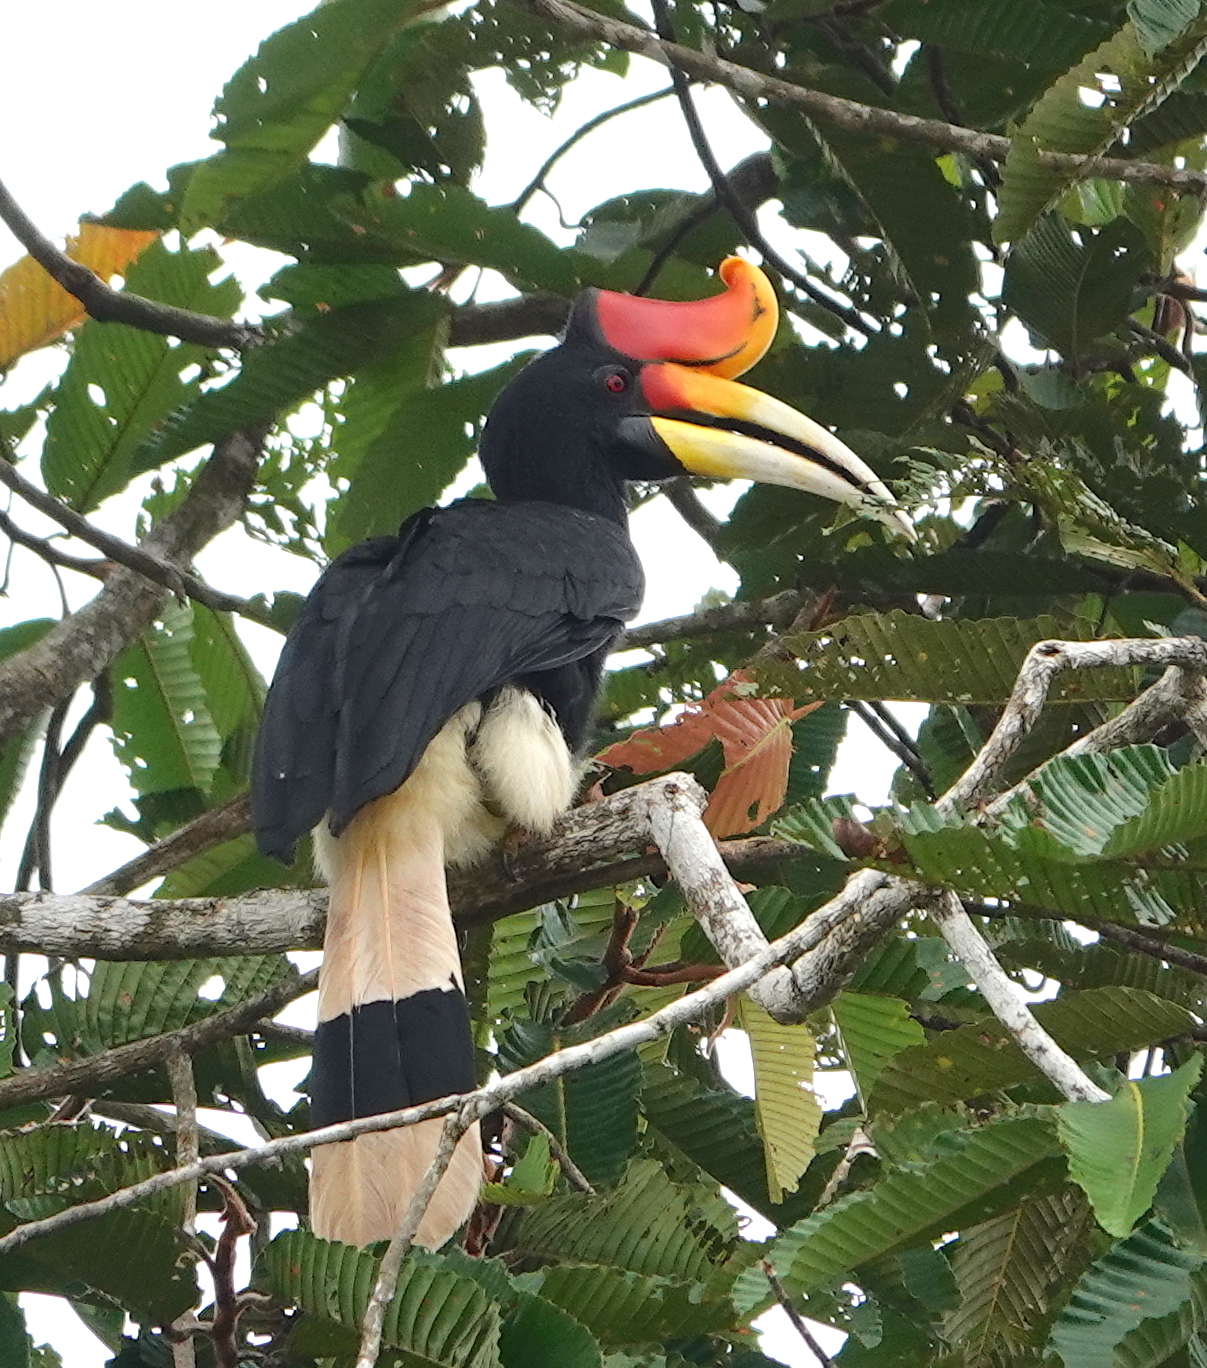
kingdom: Animalia
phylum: Chordata
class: Aves
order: Bucerotiformes
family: Bucerotidae
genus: Buceros
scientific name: Buceros rhinoceros
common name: Rhinoceros hornbill
